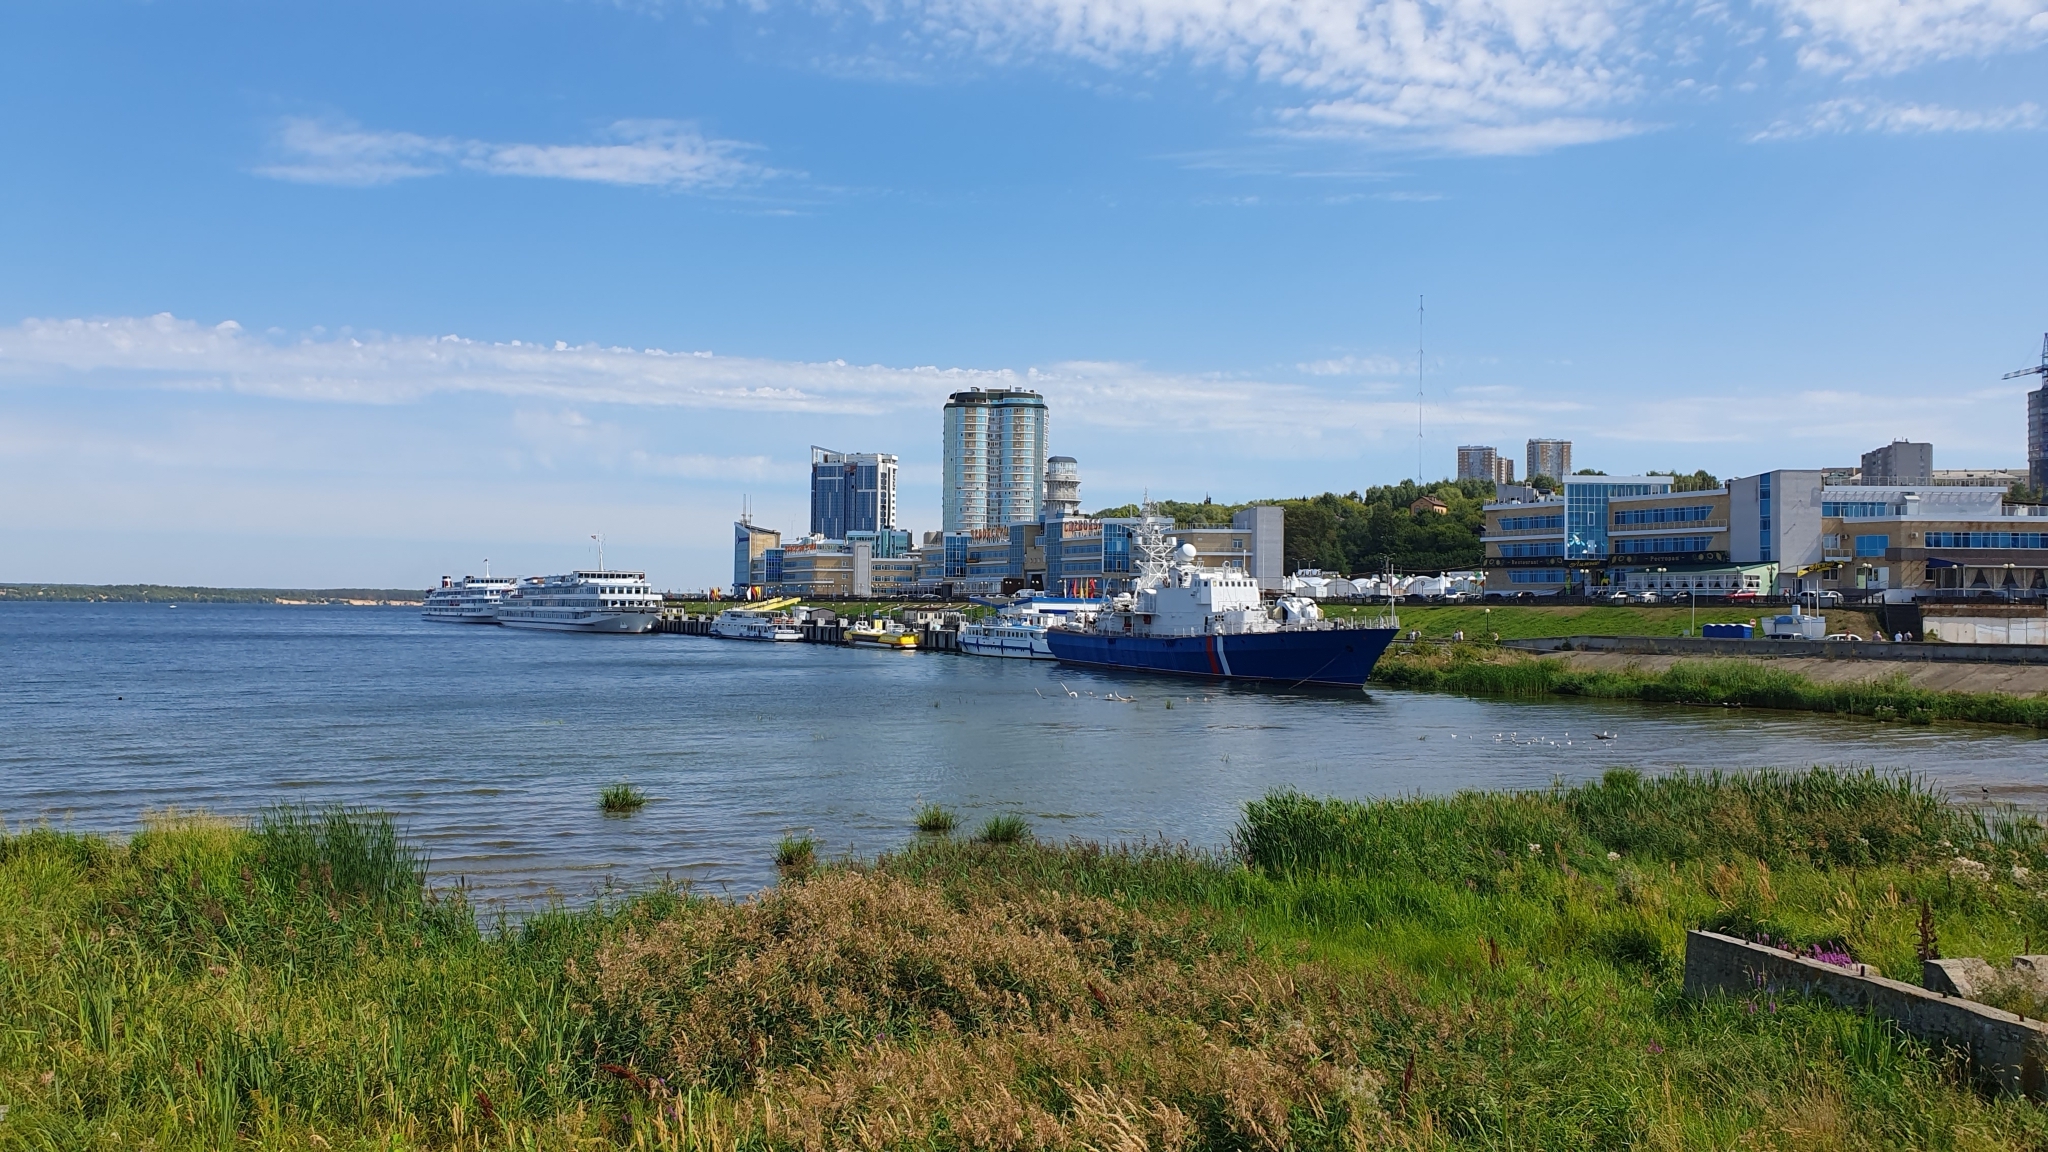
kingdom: Plantae
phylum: Tracheophyta
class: Liliopsida
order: Poales
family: Poaceae
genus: Phragmites
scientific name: Phragmites australis
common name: Common reed
